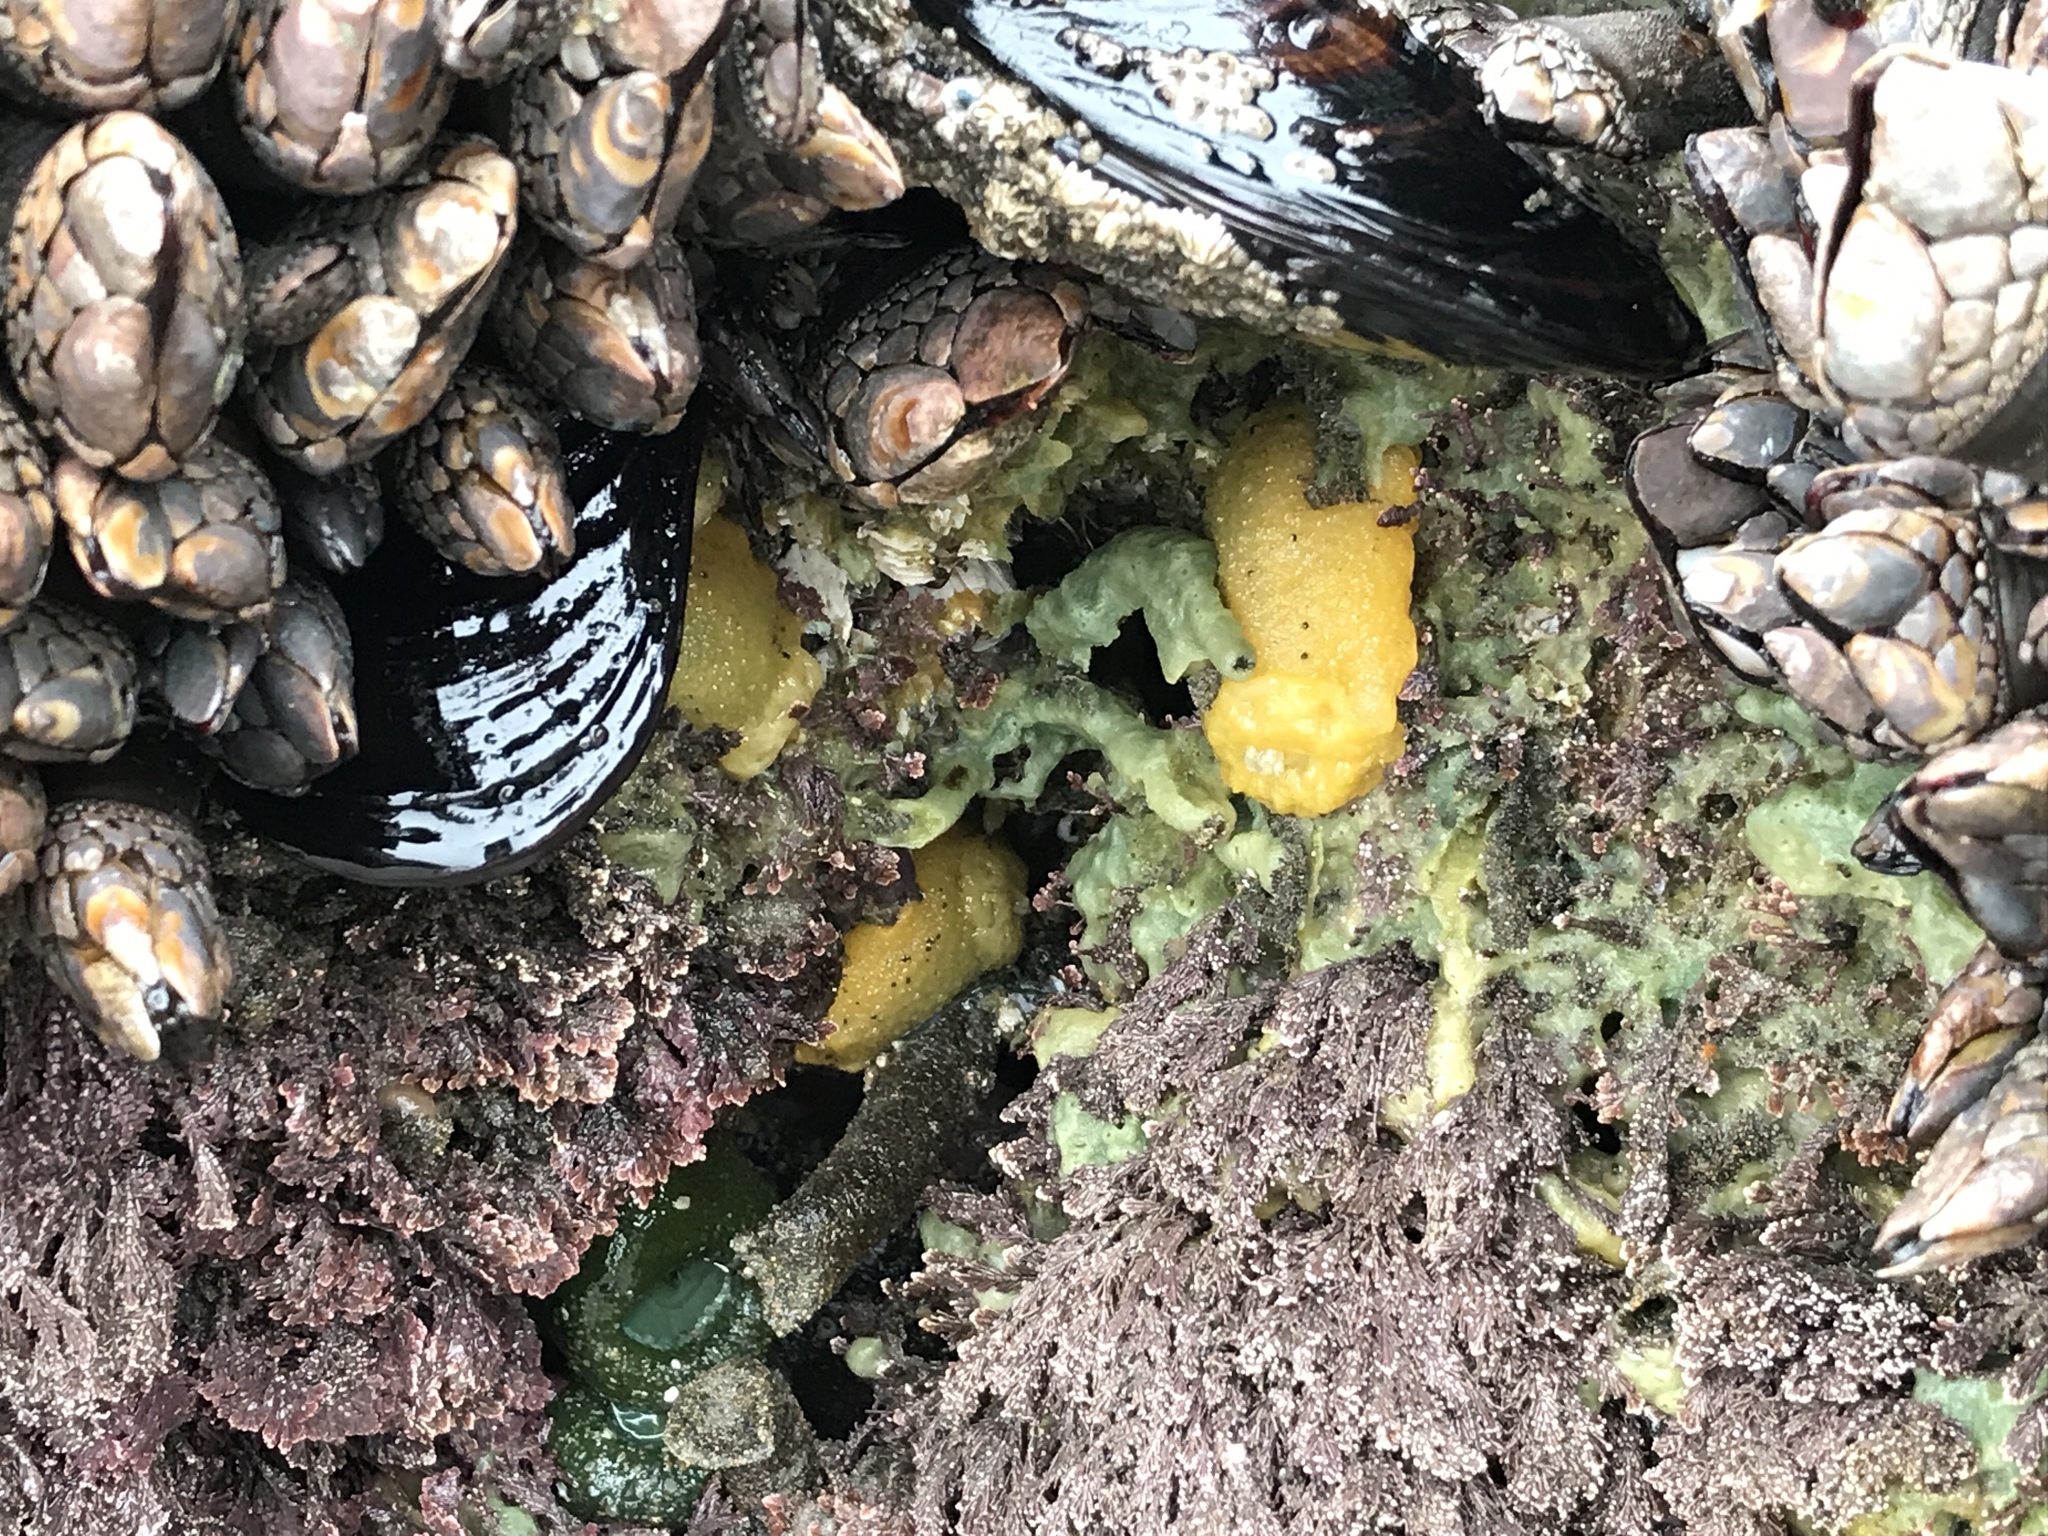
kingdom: Animalia
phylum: Mollusca
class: Gastropoda
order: Nudibranchia
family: Dorididae
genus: Doris
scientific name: Doris montereyensis
